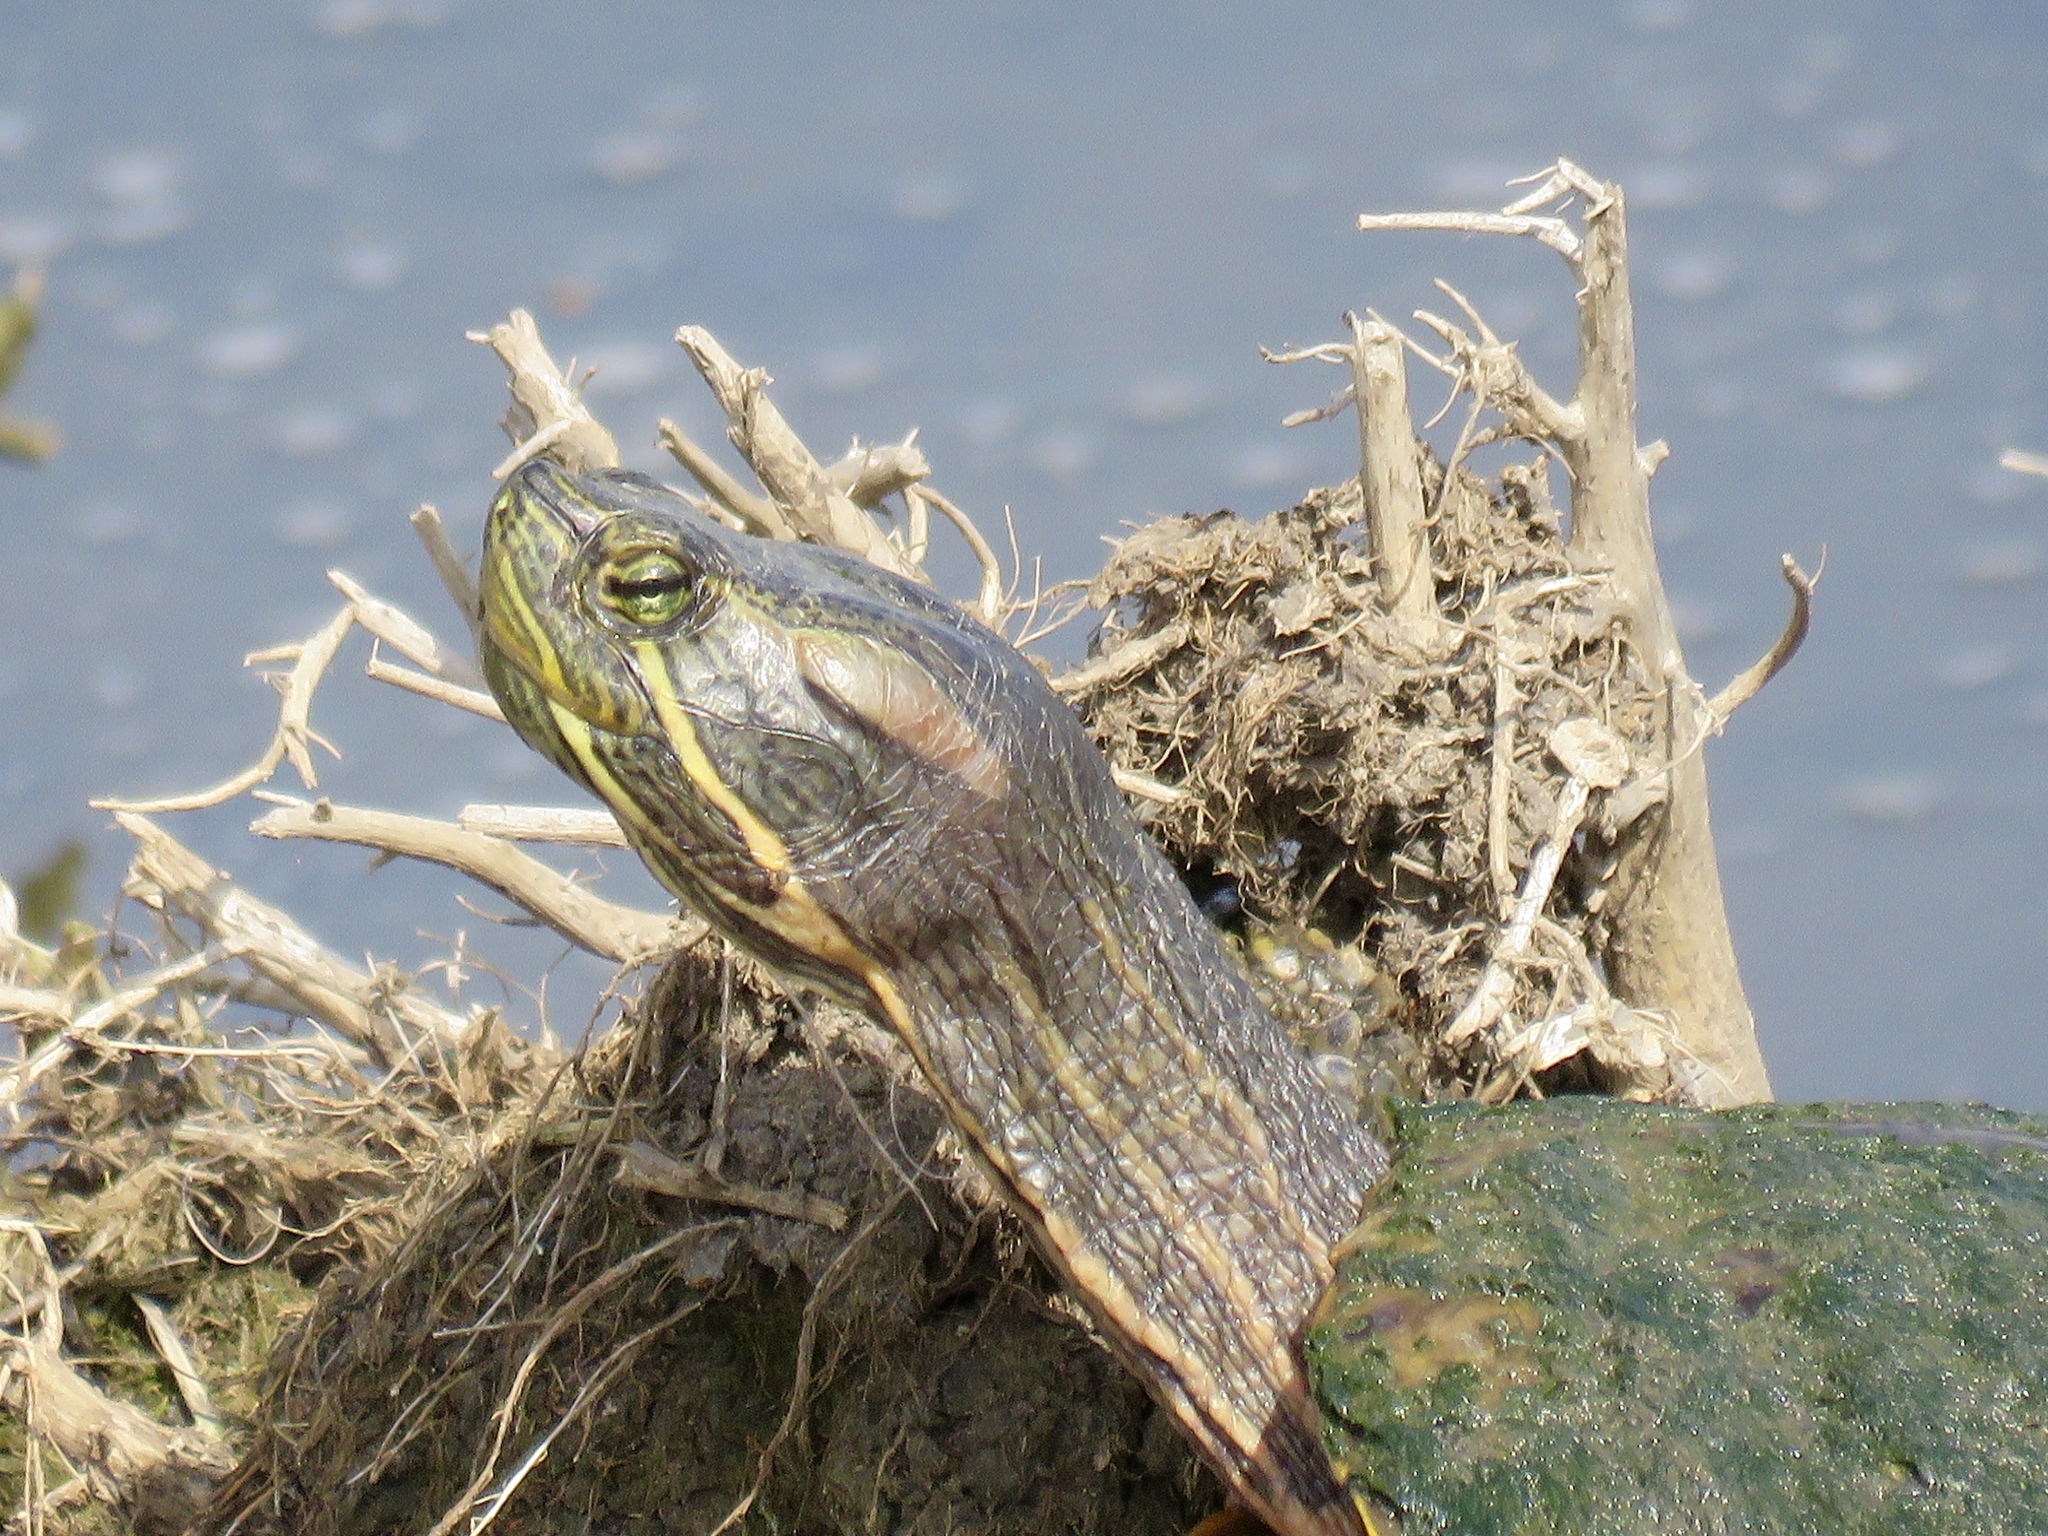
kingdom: Animalia
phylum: Chordata
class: Testudines
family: Emydidae
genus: Trachemys
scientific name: Trachemys scripta
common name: Slider
